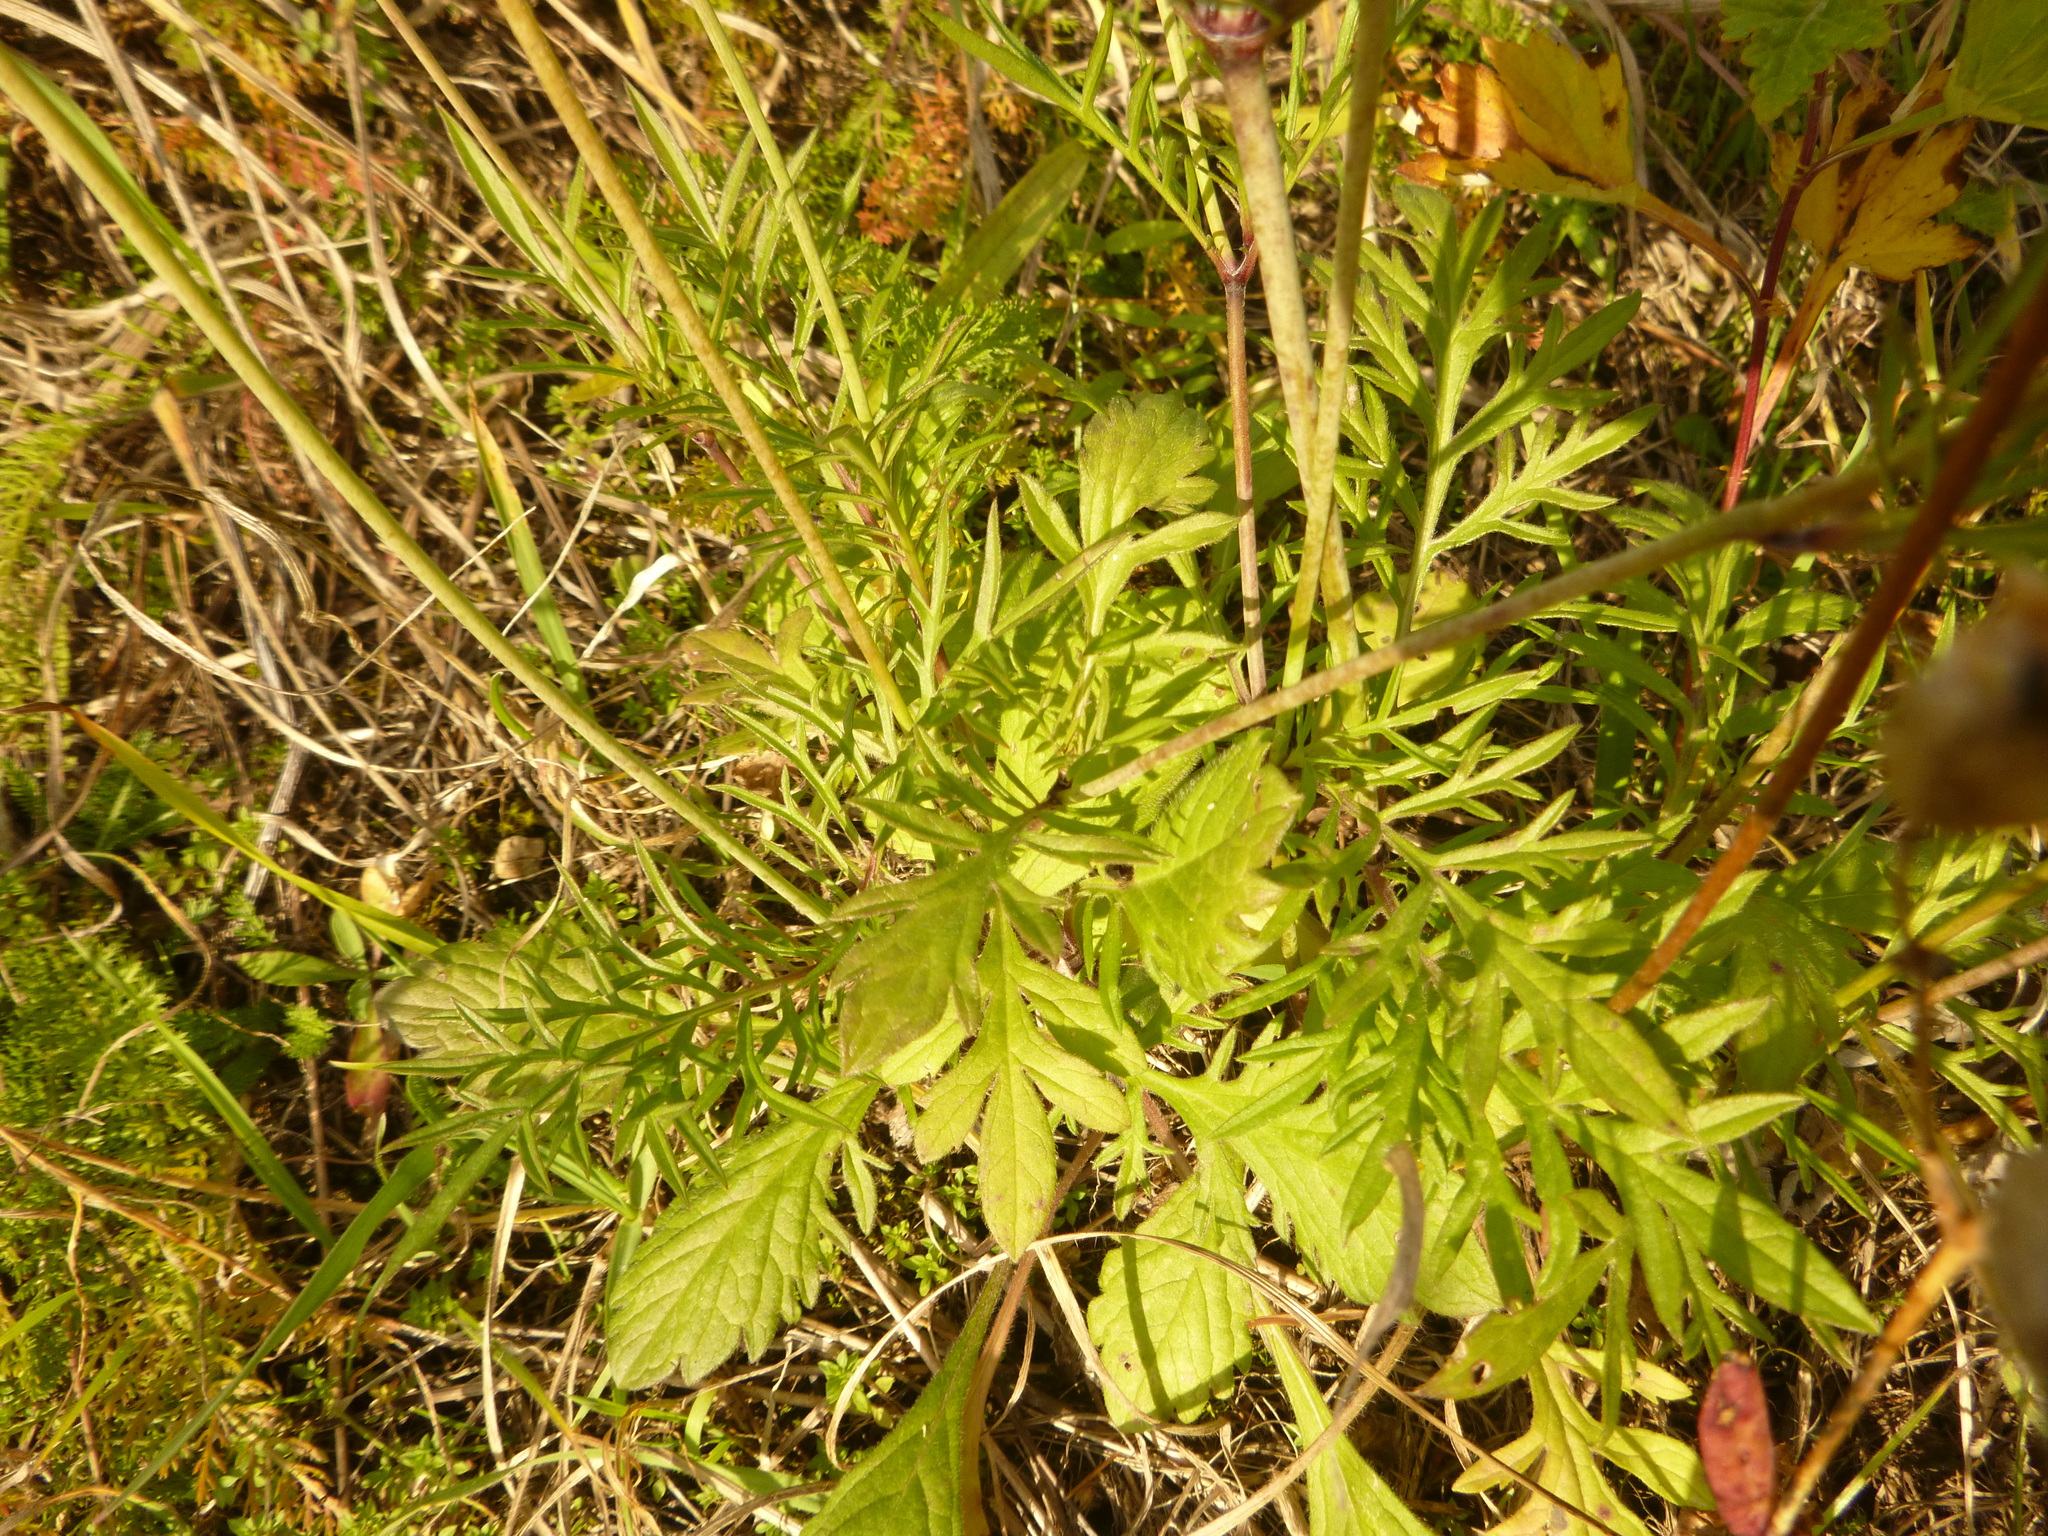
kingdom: Plantae
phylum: Tracheophyta
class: Magnoliopsida
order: Dipsacales
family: Caprifoliaceae
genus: Scabiosa
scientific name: Scabiosa ochroleuca
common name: Cream pincushions
